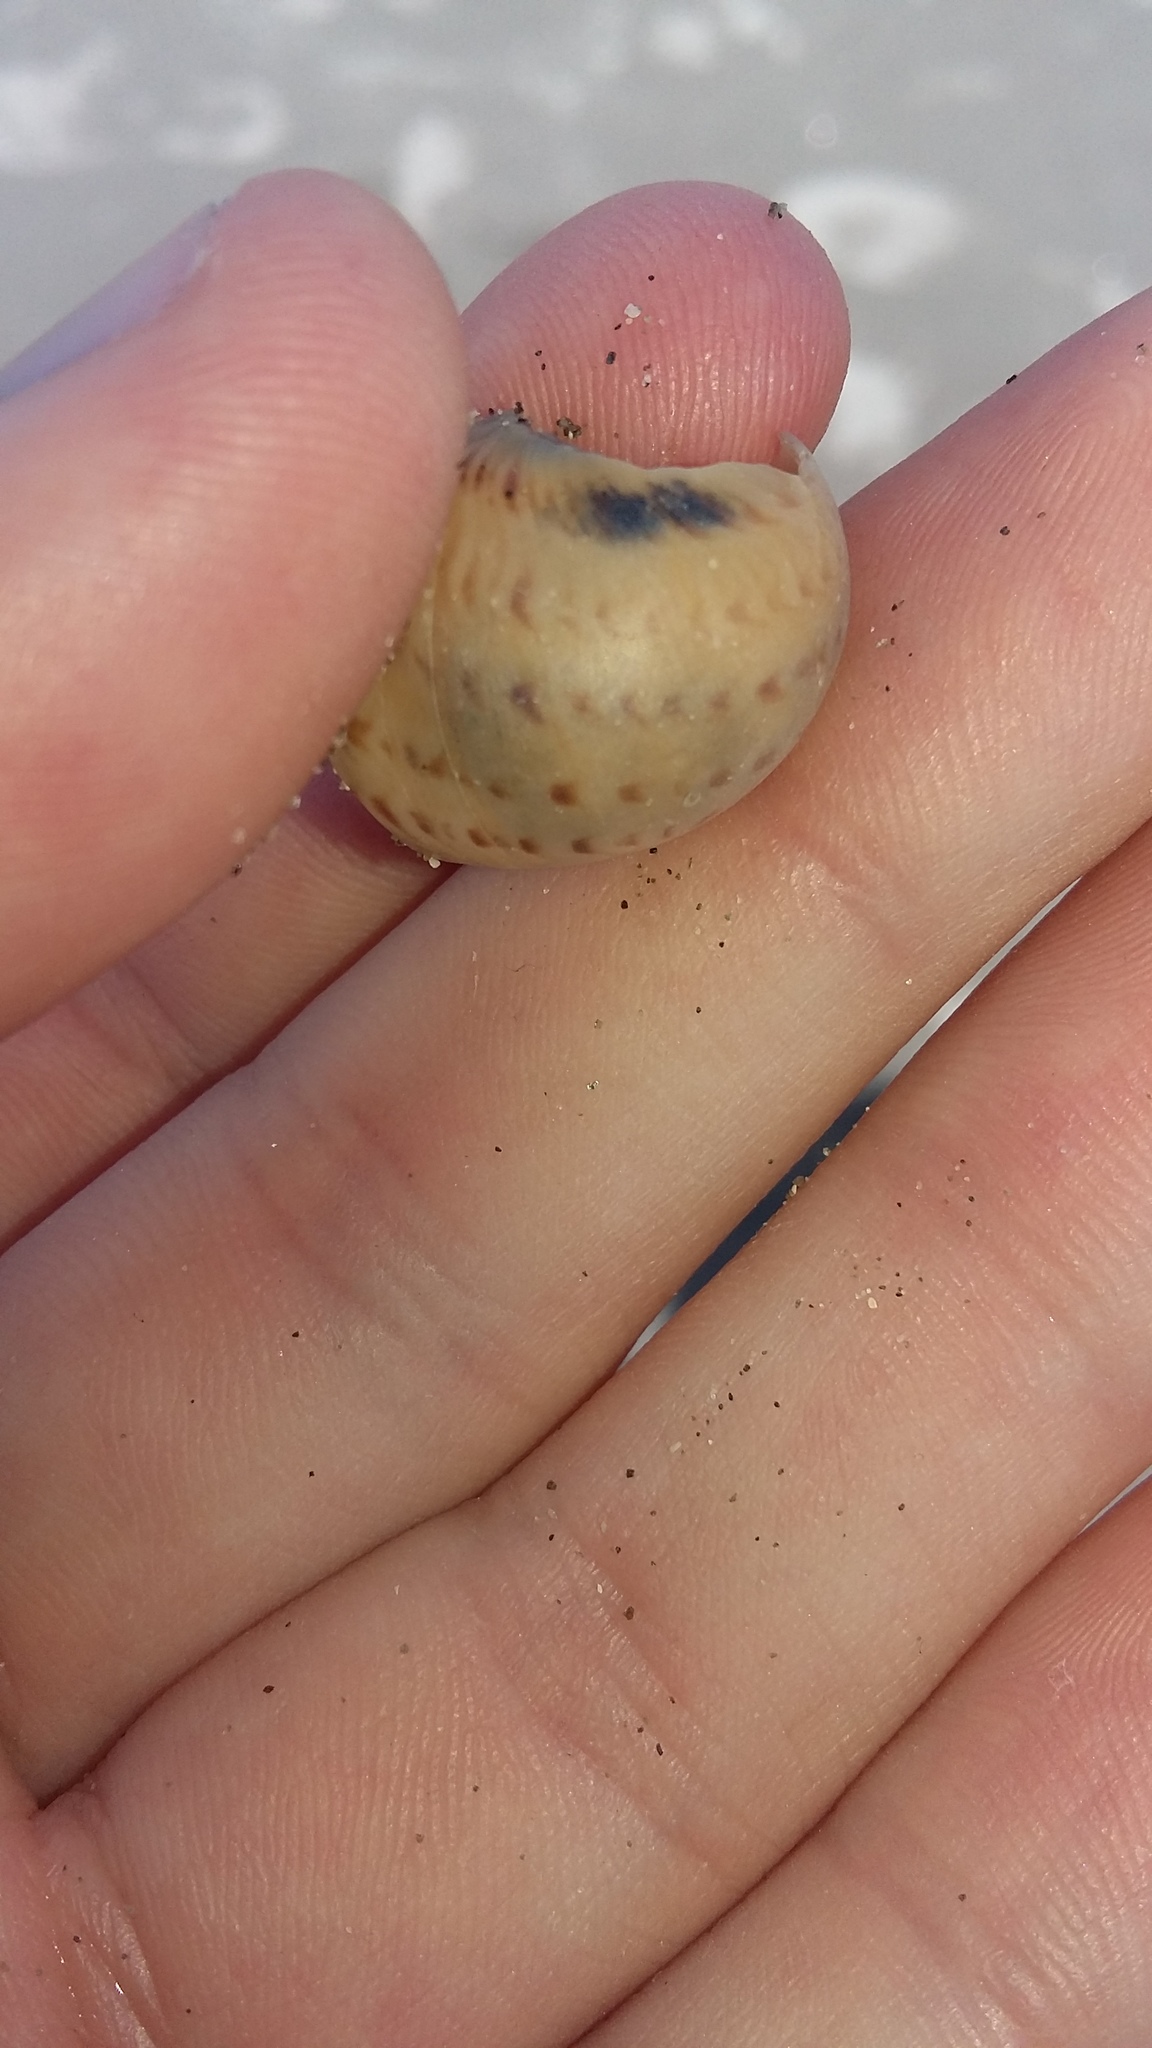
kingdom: Animalia
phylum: Mollusca
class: Gastropoda
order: Littorinimorpha
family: Naticidae
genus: Tanea
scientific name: Tanea zelandica
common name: New zealand moonsnail
